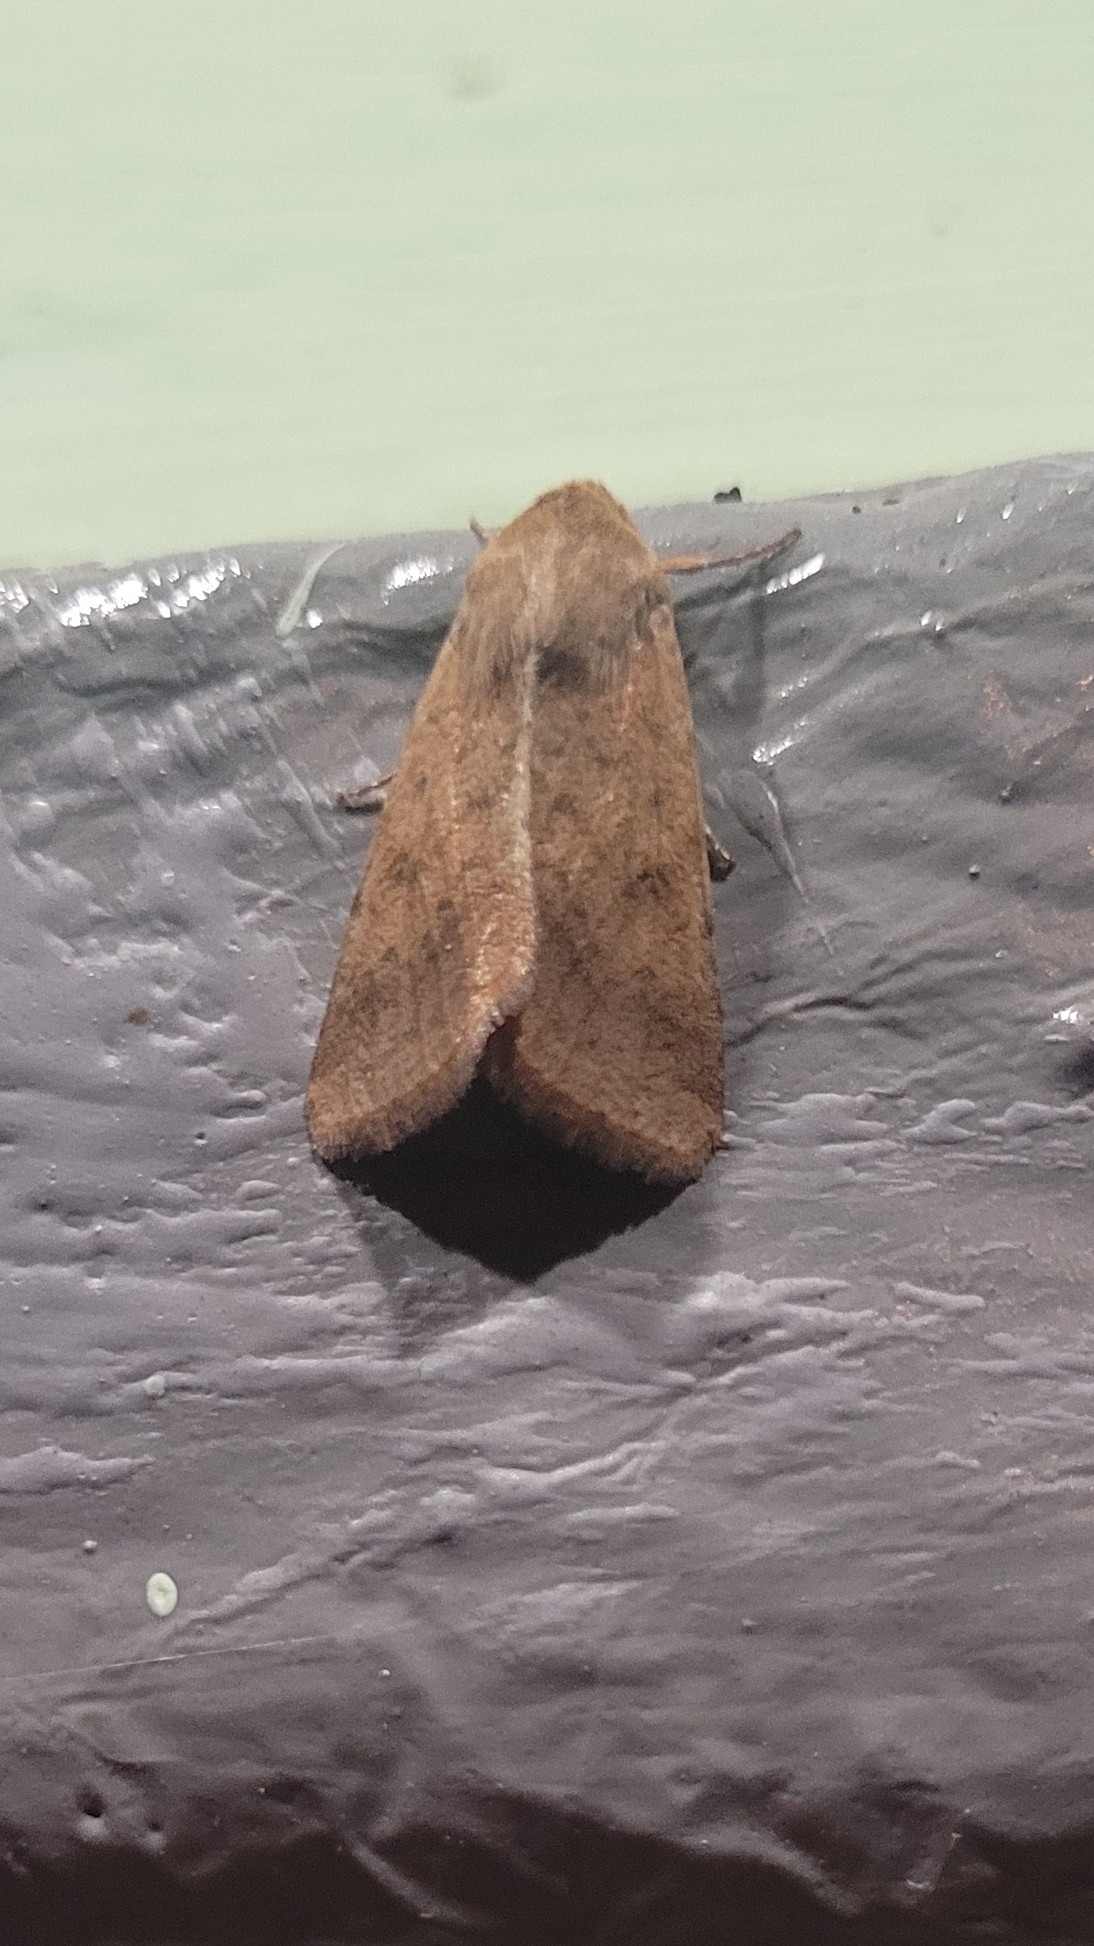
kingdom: Animalia
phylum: Arthropoda
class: Insecta
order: Lepidoptera
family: Noctuidae
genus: Helicoverpa
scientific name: Helicoverpa armigera
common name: Cotton bollworm
